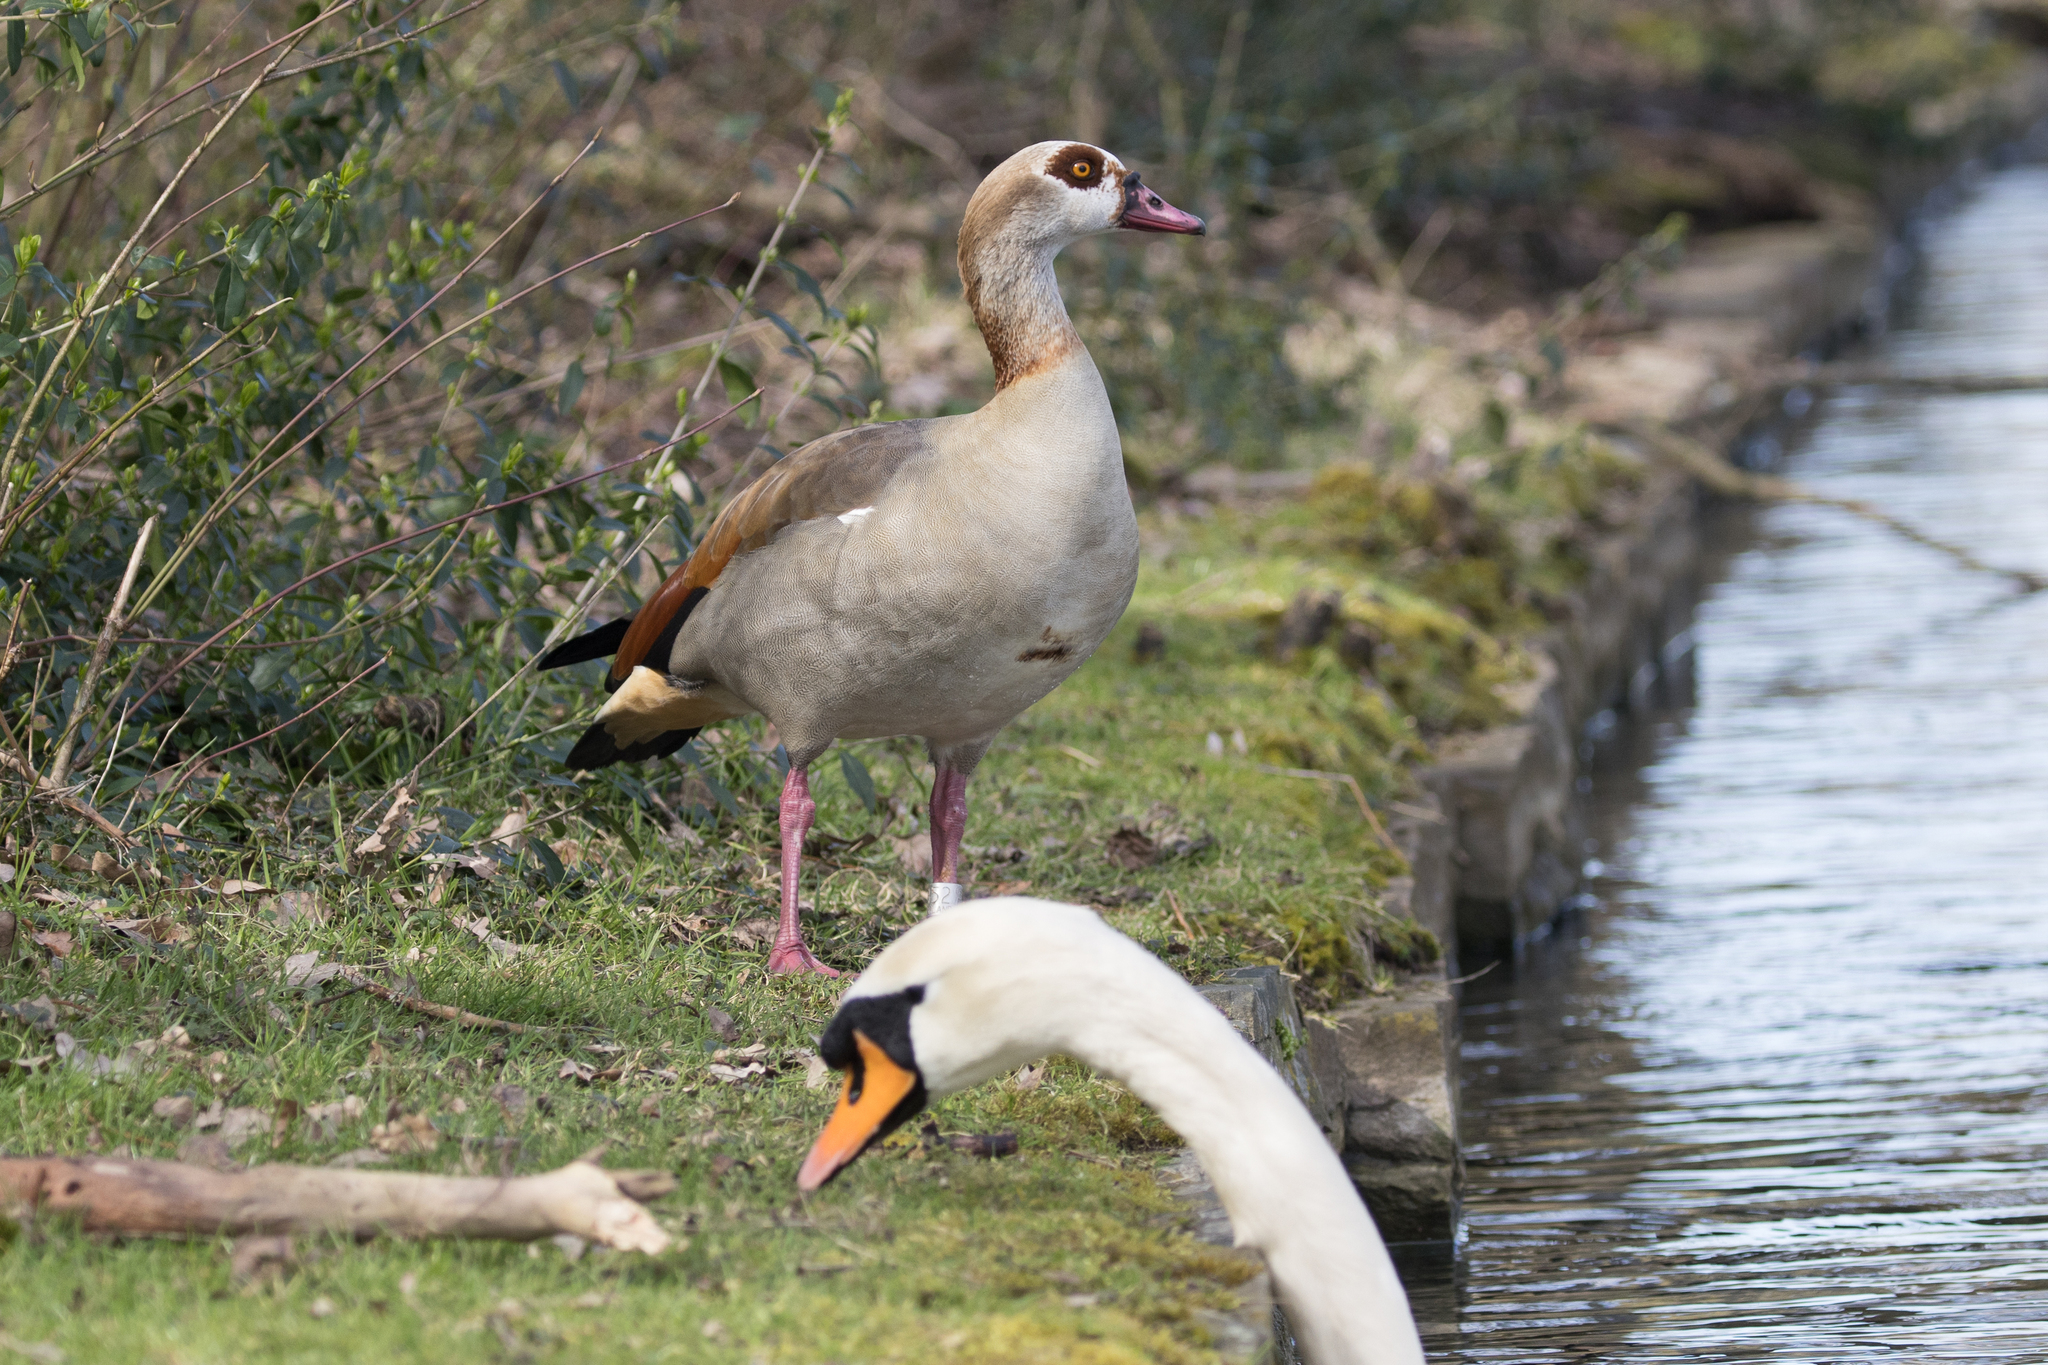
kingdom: Animalia
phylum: Chordata
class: Aves
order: Anseriformes
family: Anatidae
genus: Alopochen
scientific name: Alopochen aegyptiaca
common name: Egyptian goose
